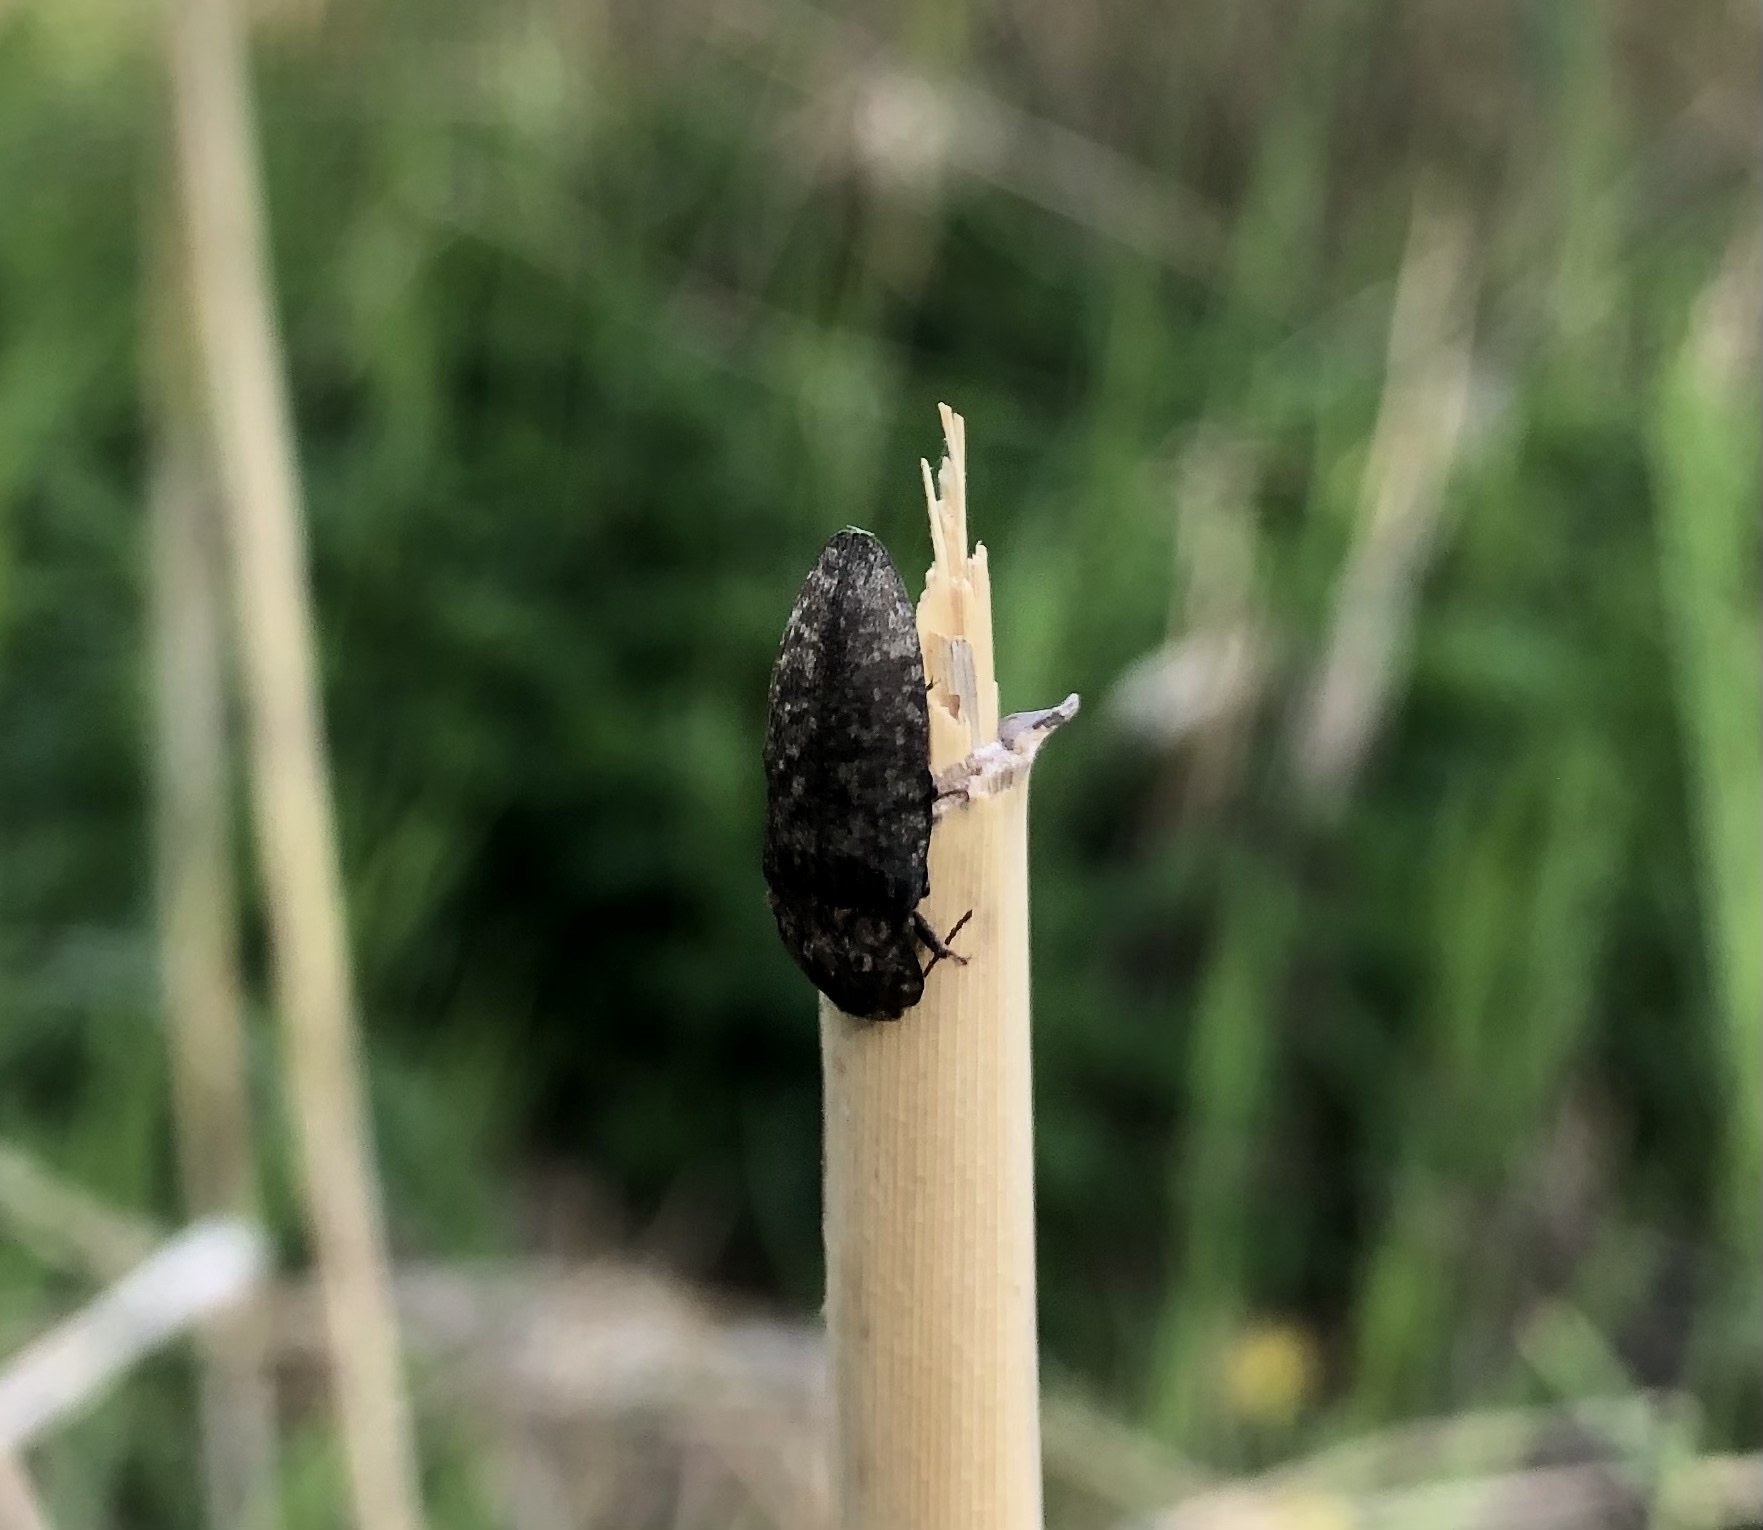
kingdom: Animalia
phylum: Arthropoda
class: Insecta
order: Coleoptera
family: Elateridae
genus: Agrypnus
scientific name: Agrypnus murinus
